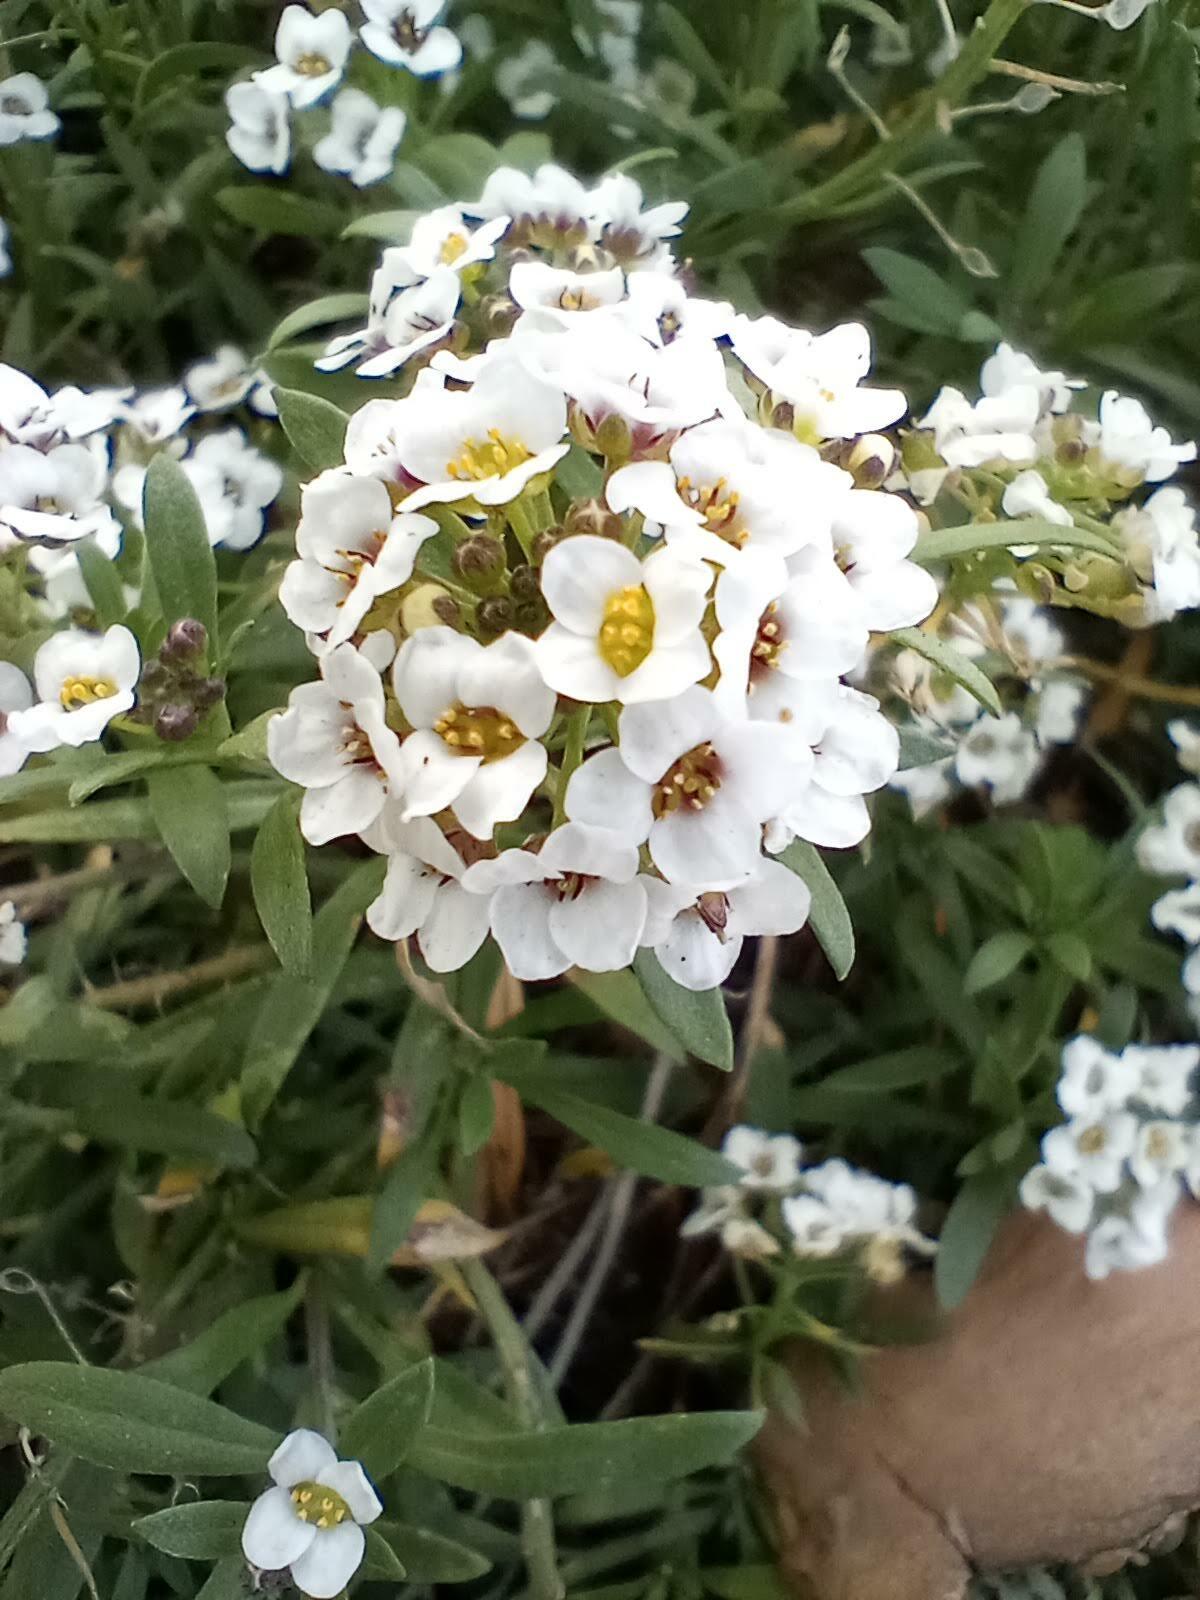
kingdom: Plantae
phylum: Tracheophyta
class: Magnoliopsida
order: Brassicales
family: Brassicaceae
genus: Lobularia
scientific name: Lobularia maritima
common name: Sweet alison
